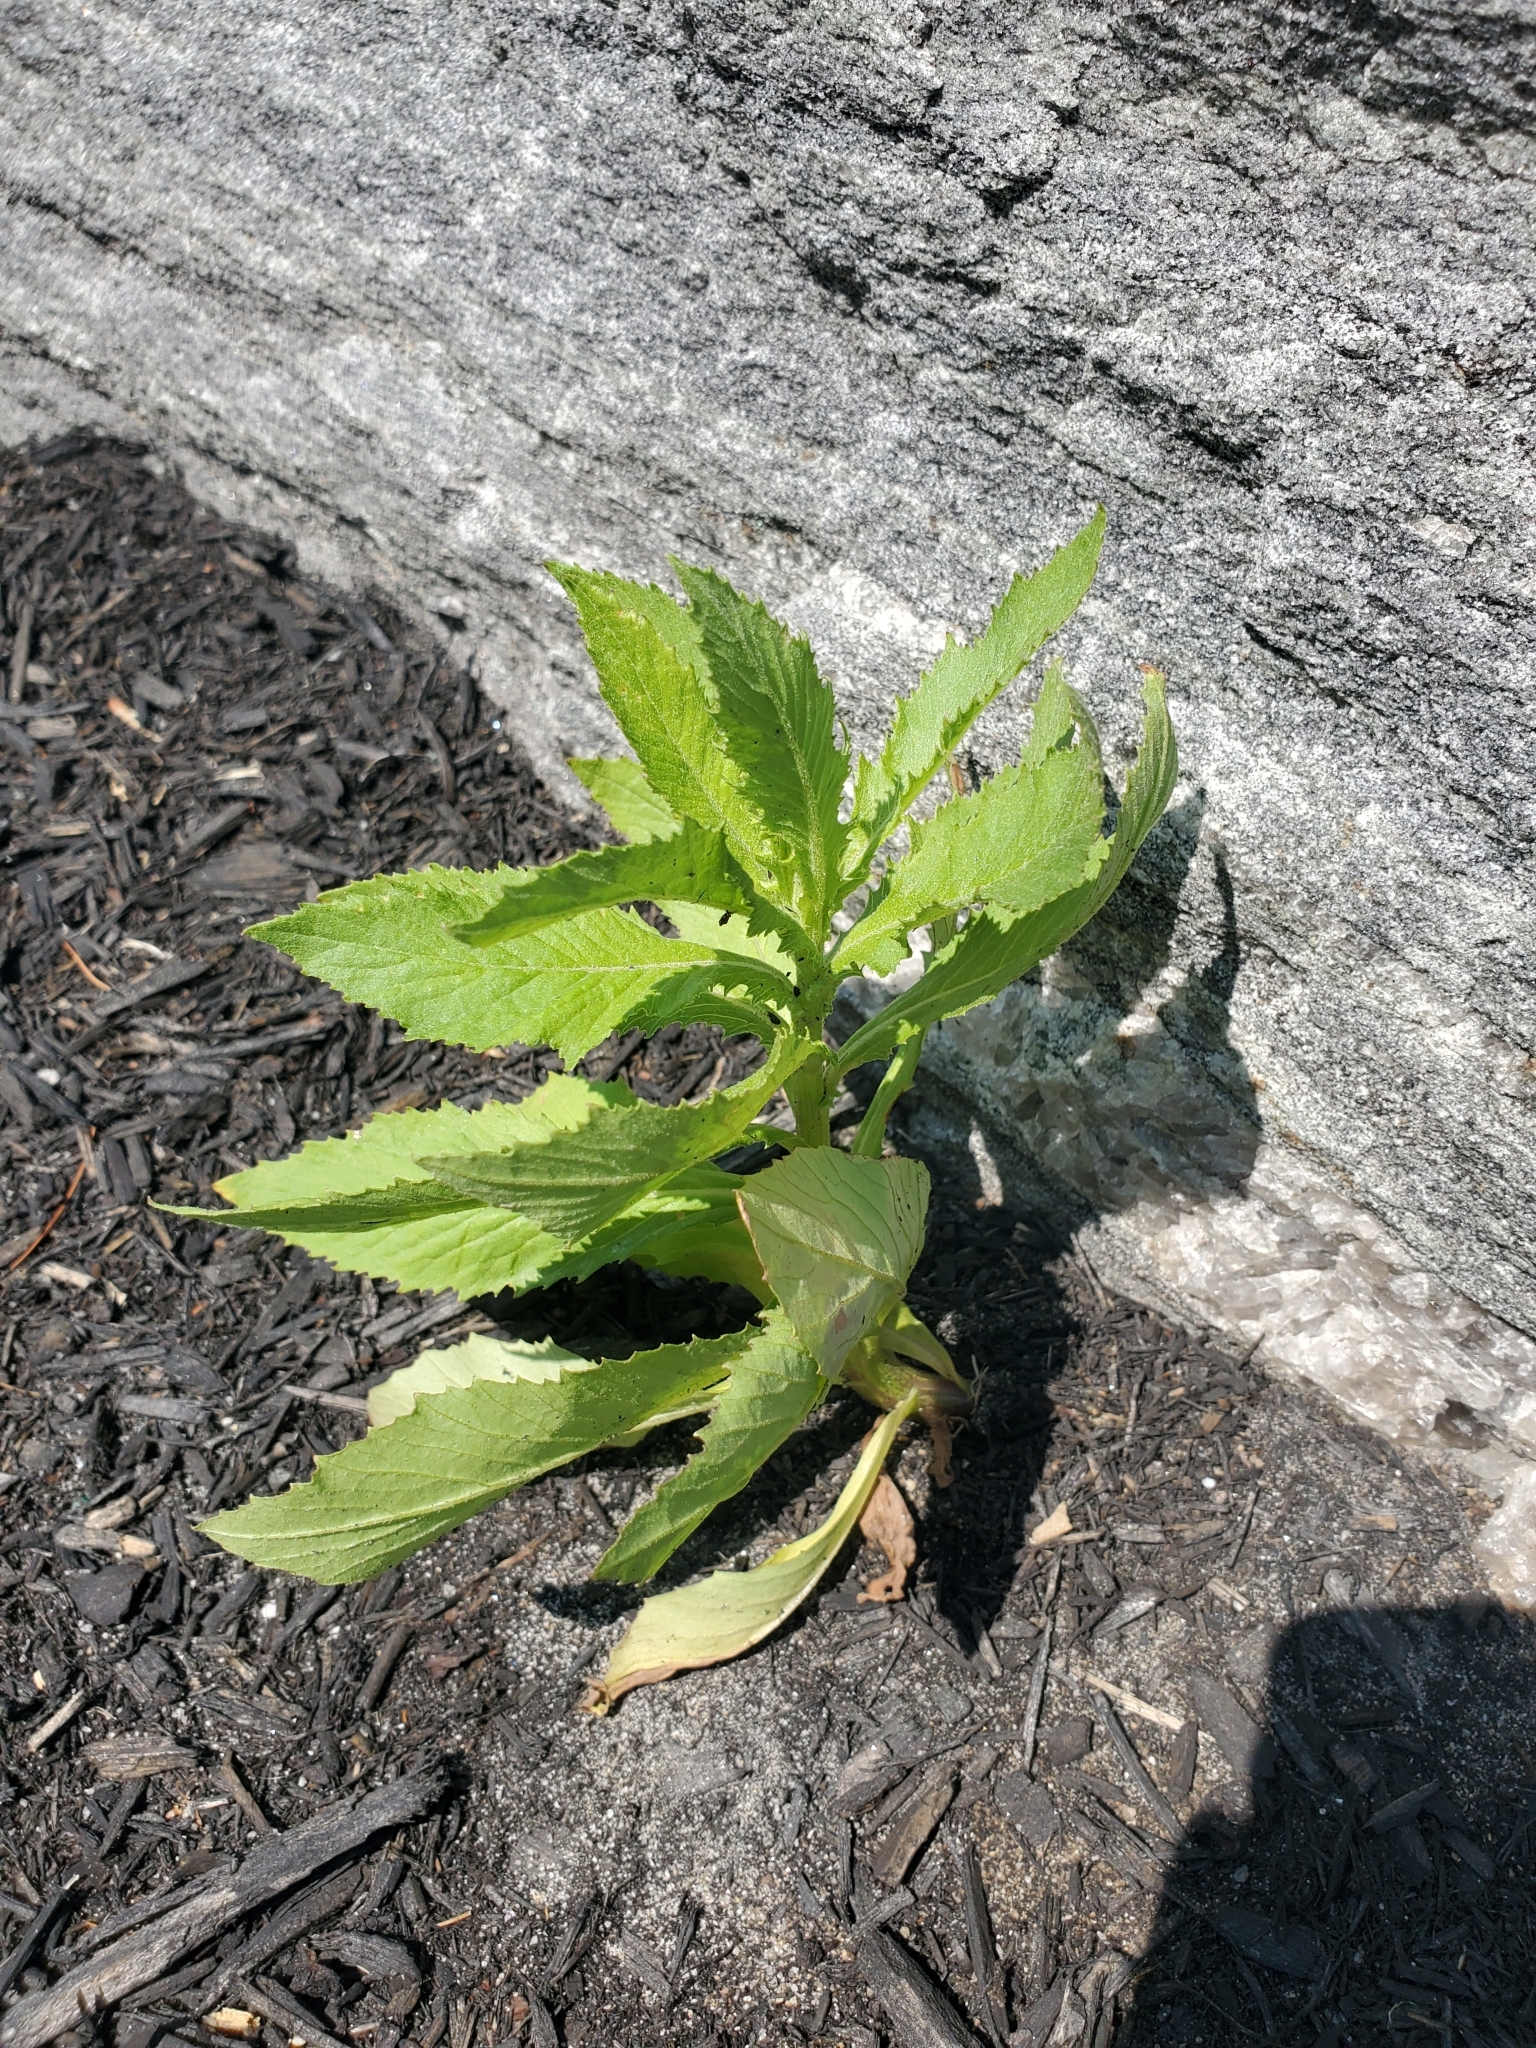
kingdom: Plantae
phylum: Tracheophyta
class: Magnoliopsida
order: Asterales
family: Asteraceae
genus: Erechtites
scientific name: Erechtites hieraciifolius
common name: American burnweed
